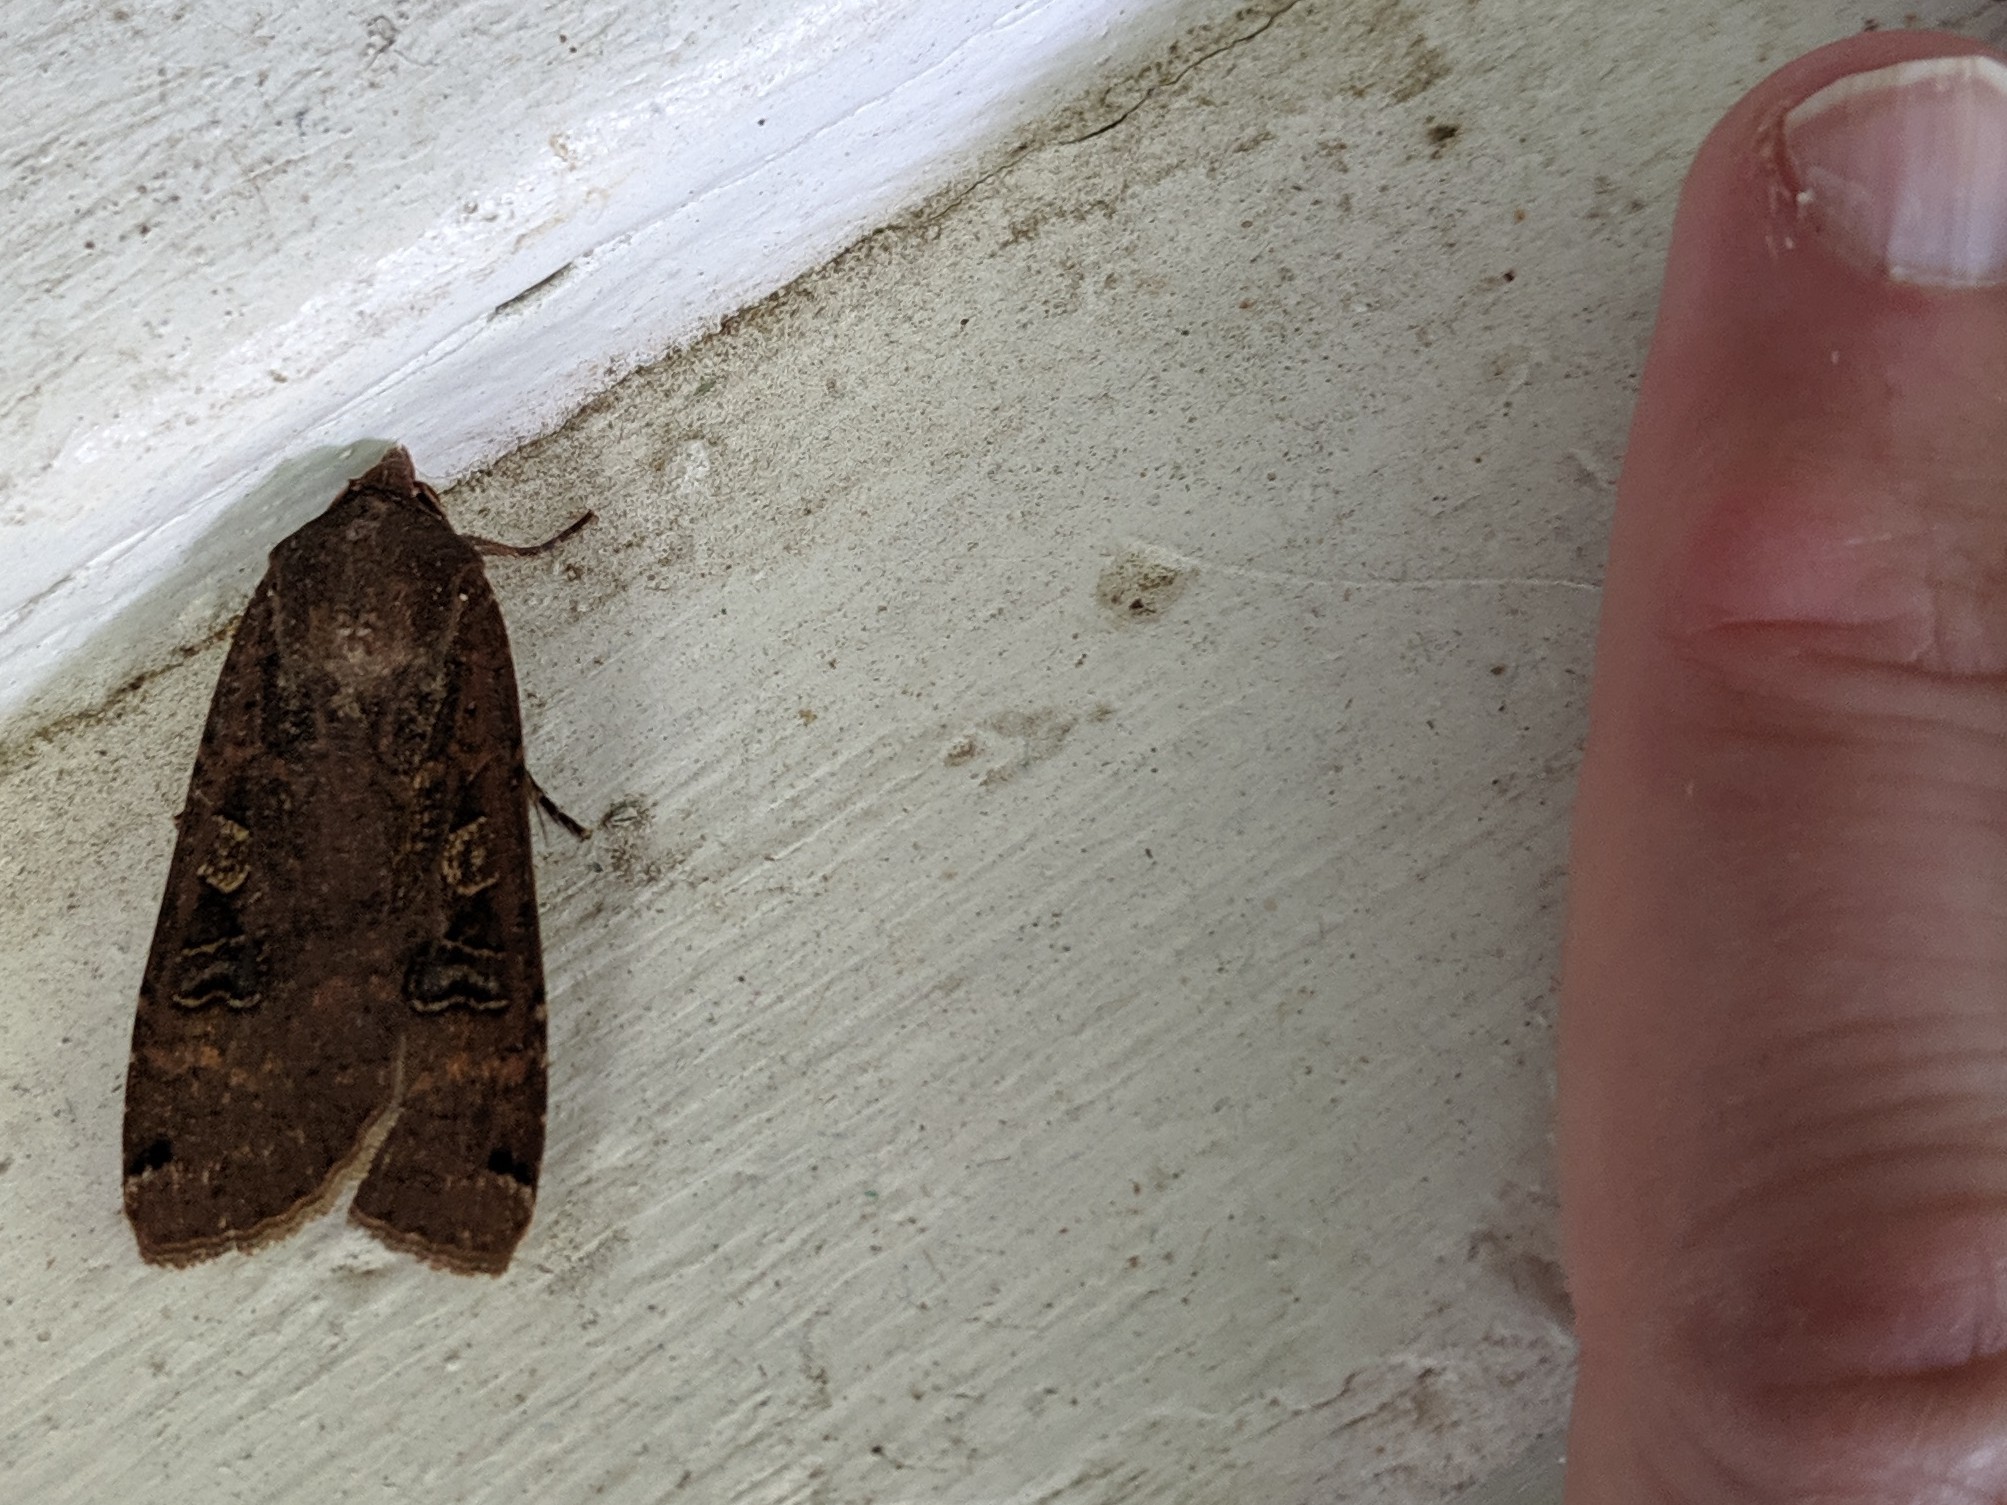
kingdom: Animalia
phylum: Arthropoda
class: Insecta
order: Lepidoptera
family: Noctuidae
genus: Noctua
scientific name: Noctua pronuba
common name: Large yellow underwing
